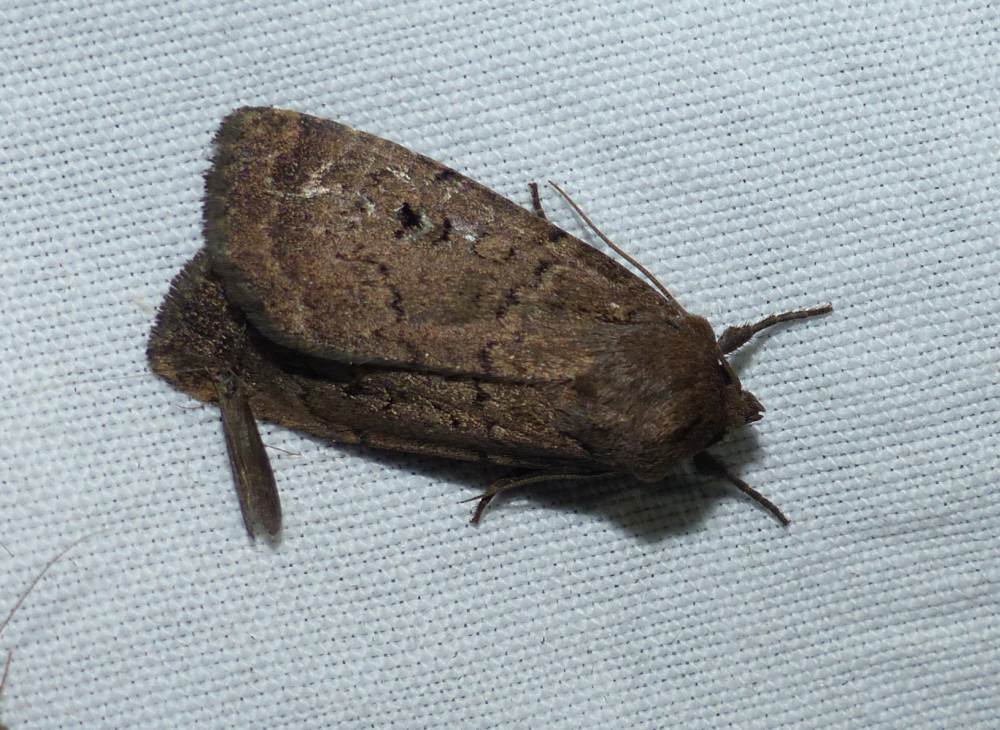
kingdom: Animalia
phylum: Arthropoda
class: Insecta
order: Lepidoptera
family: Noctuidae
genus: Graphiphora
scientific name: Graphiphora augur
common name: Double dart
